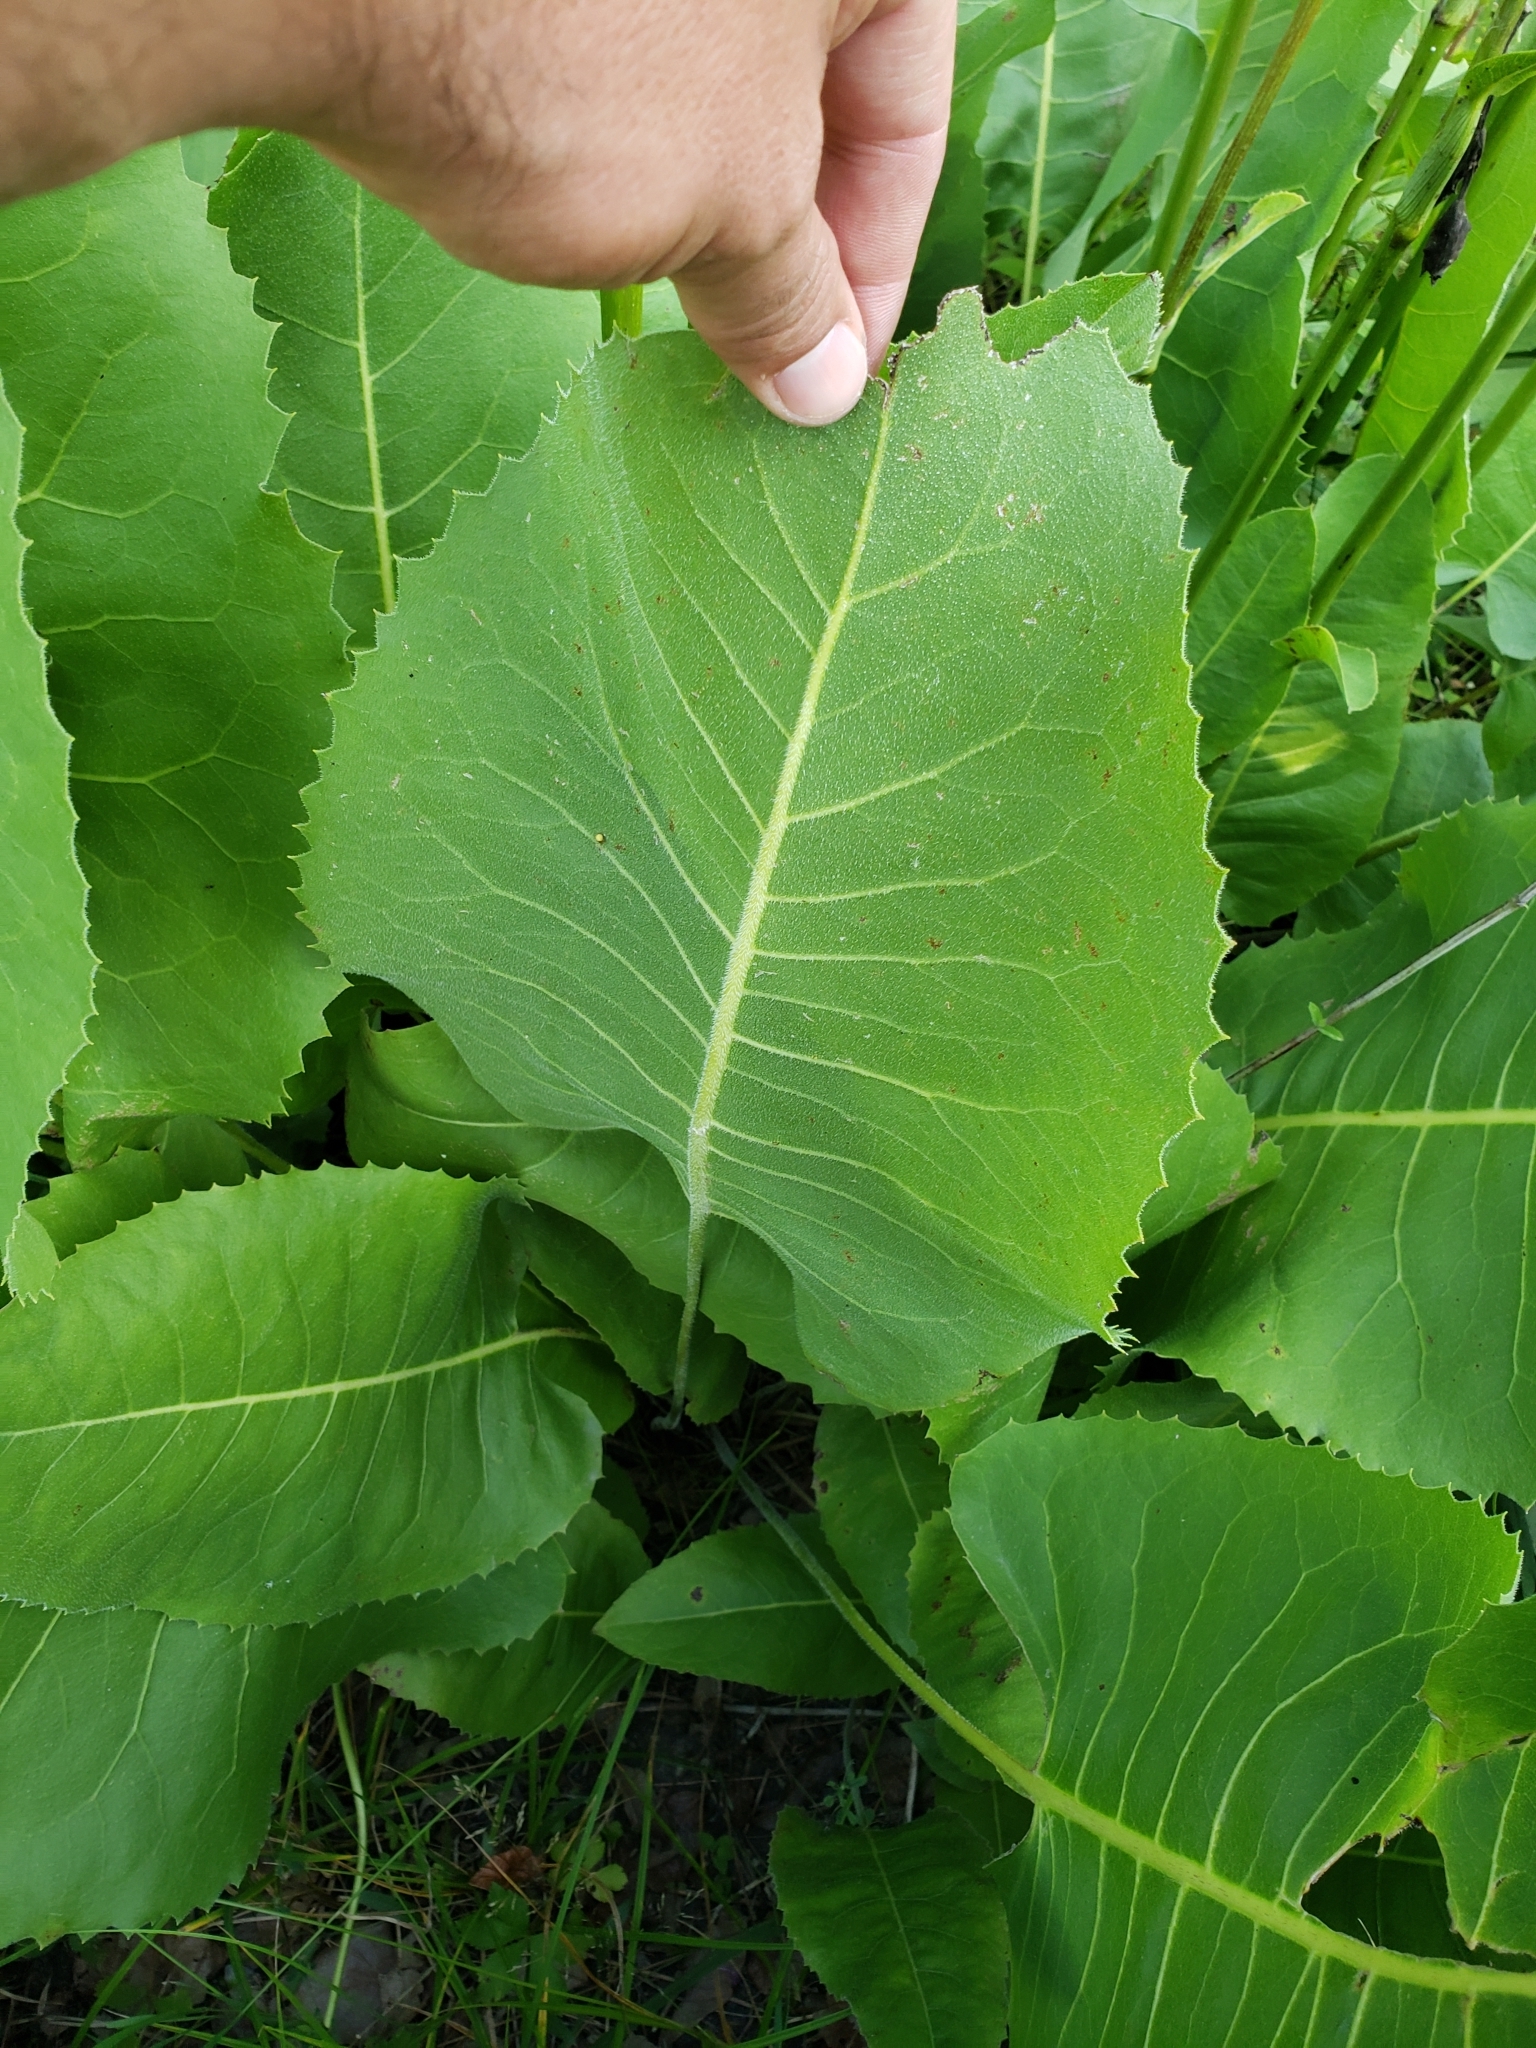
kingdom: Plantae
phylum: Tracheophyta
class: Magnoliopsida
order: Asterales
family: Asteraceae
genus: Silphium
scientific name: Silphium terebinthinaceum
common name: Basal-leaf rosinweed
